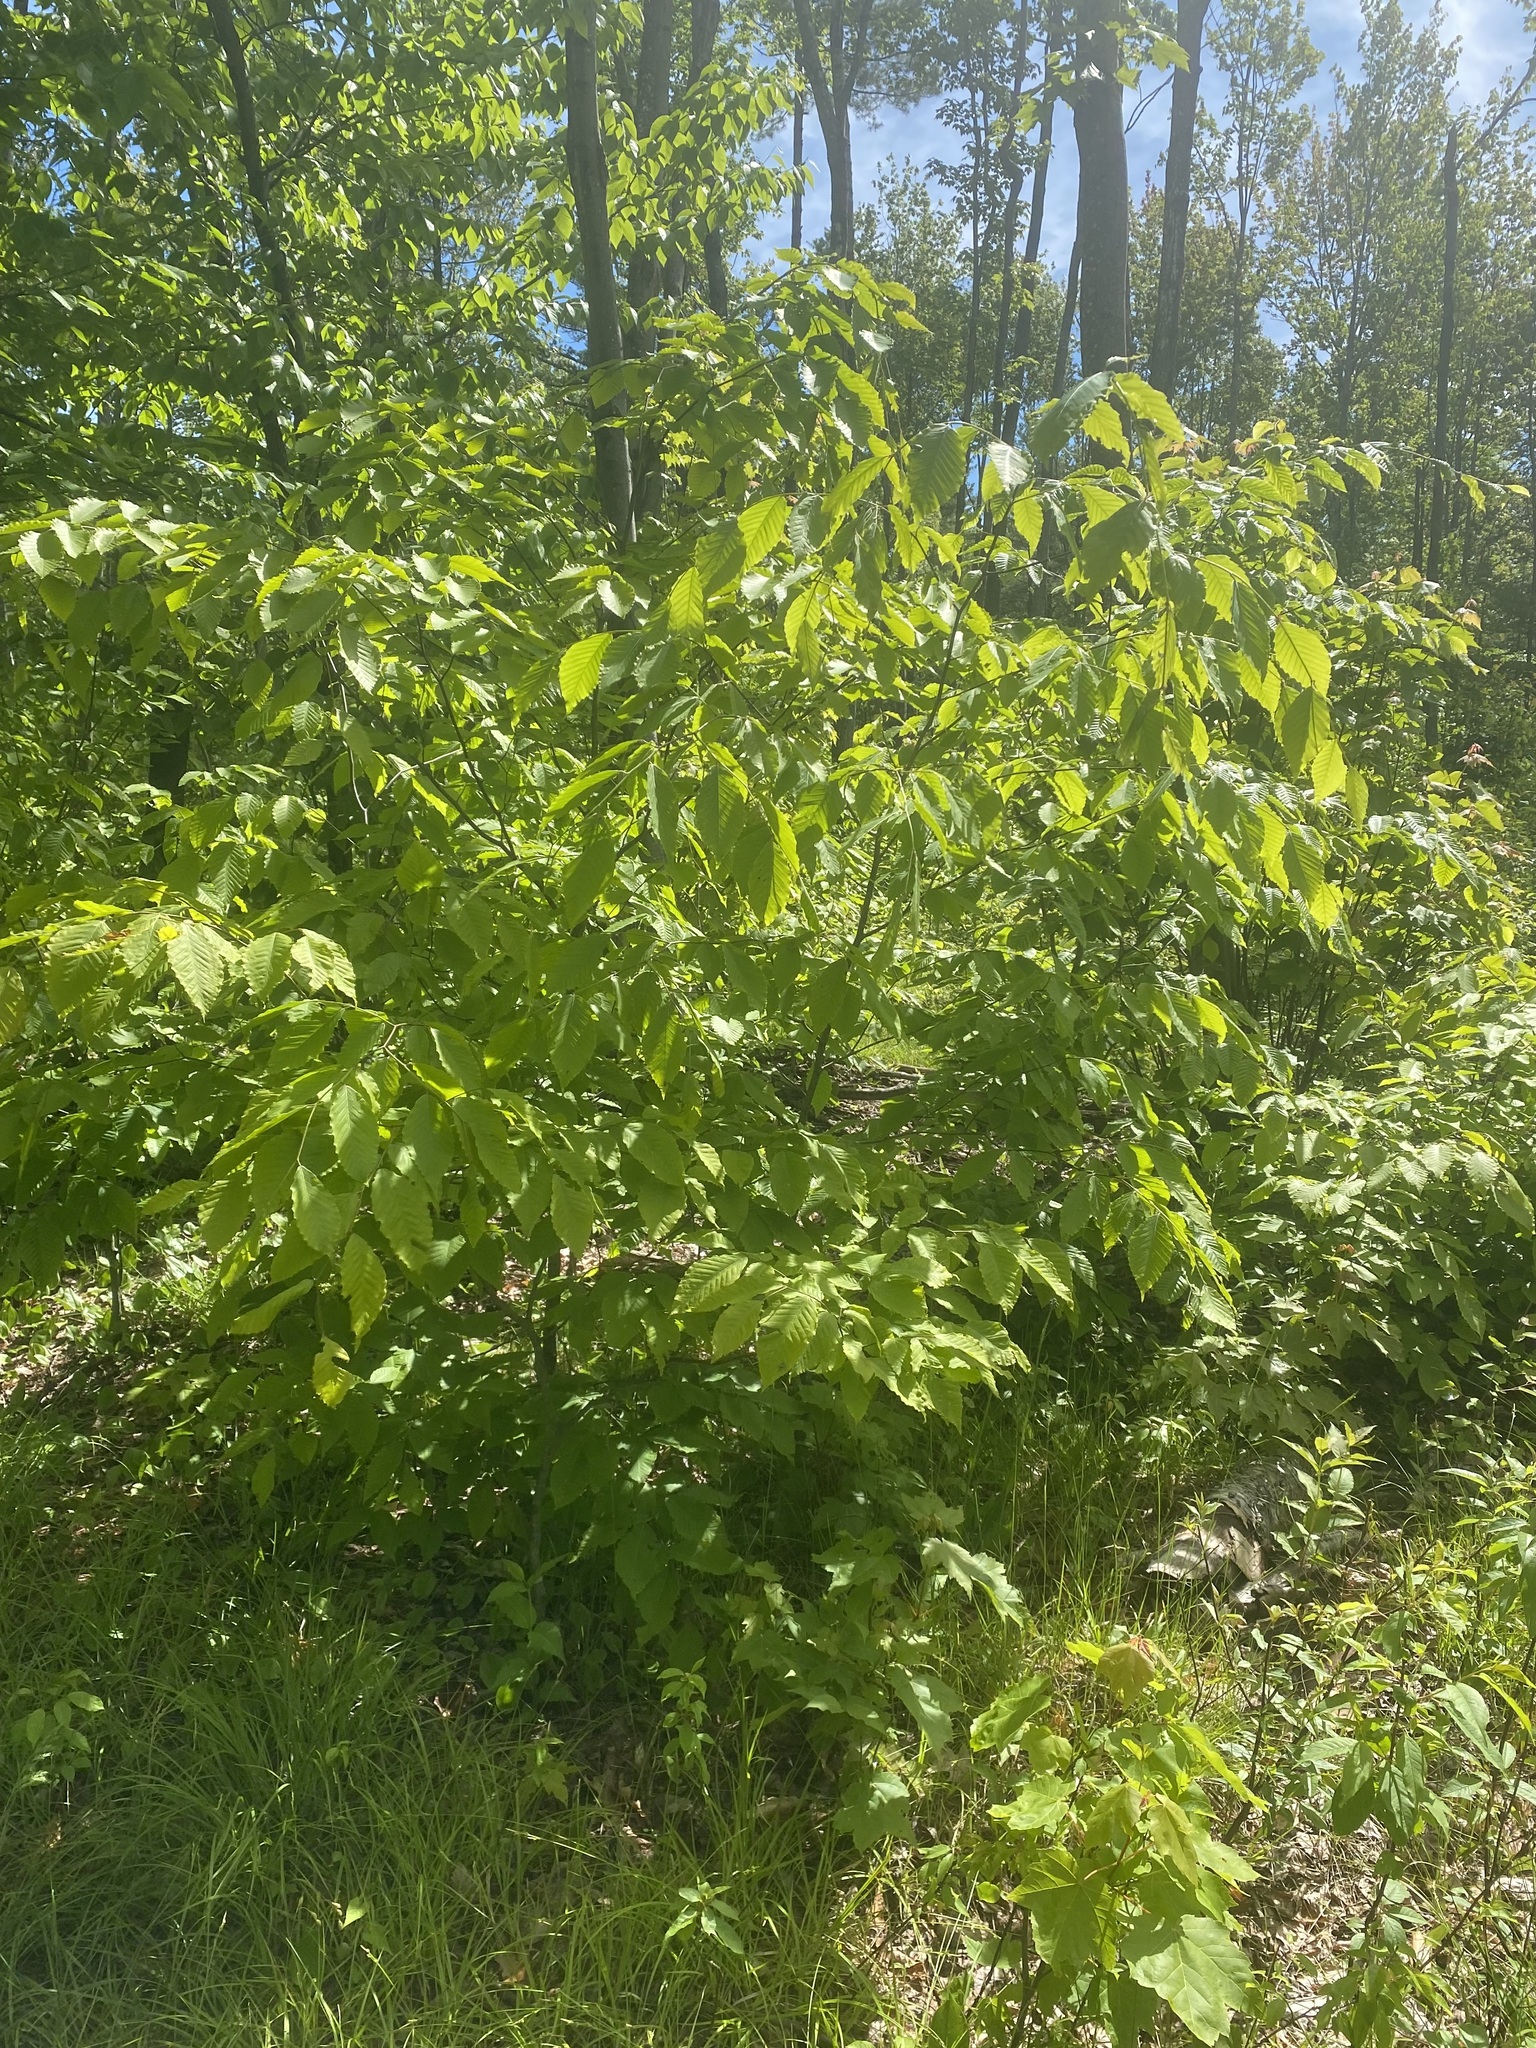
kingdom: Plantae
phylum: Tracheophyta
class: Magnoliopsida
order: Fagales
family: Fagaceae
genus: Fagus
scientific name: Fagus grandifolia
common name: American beech
